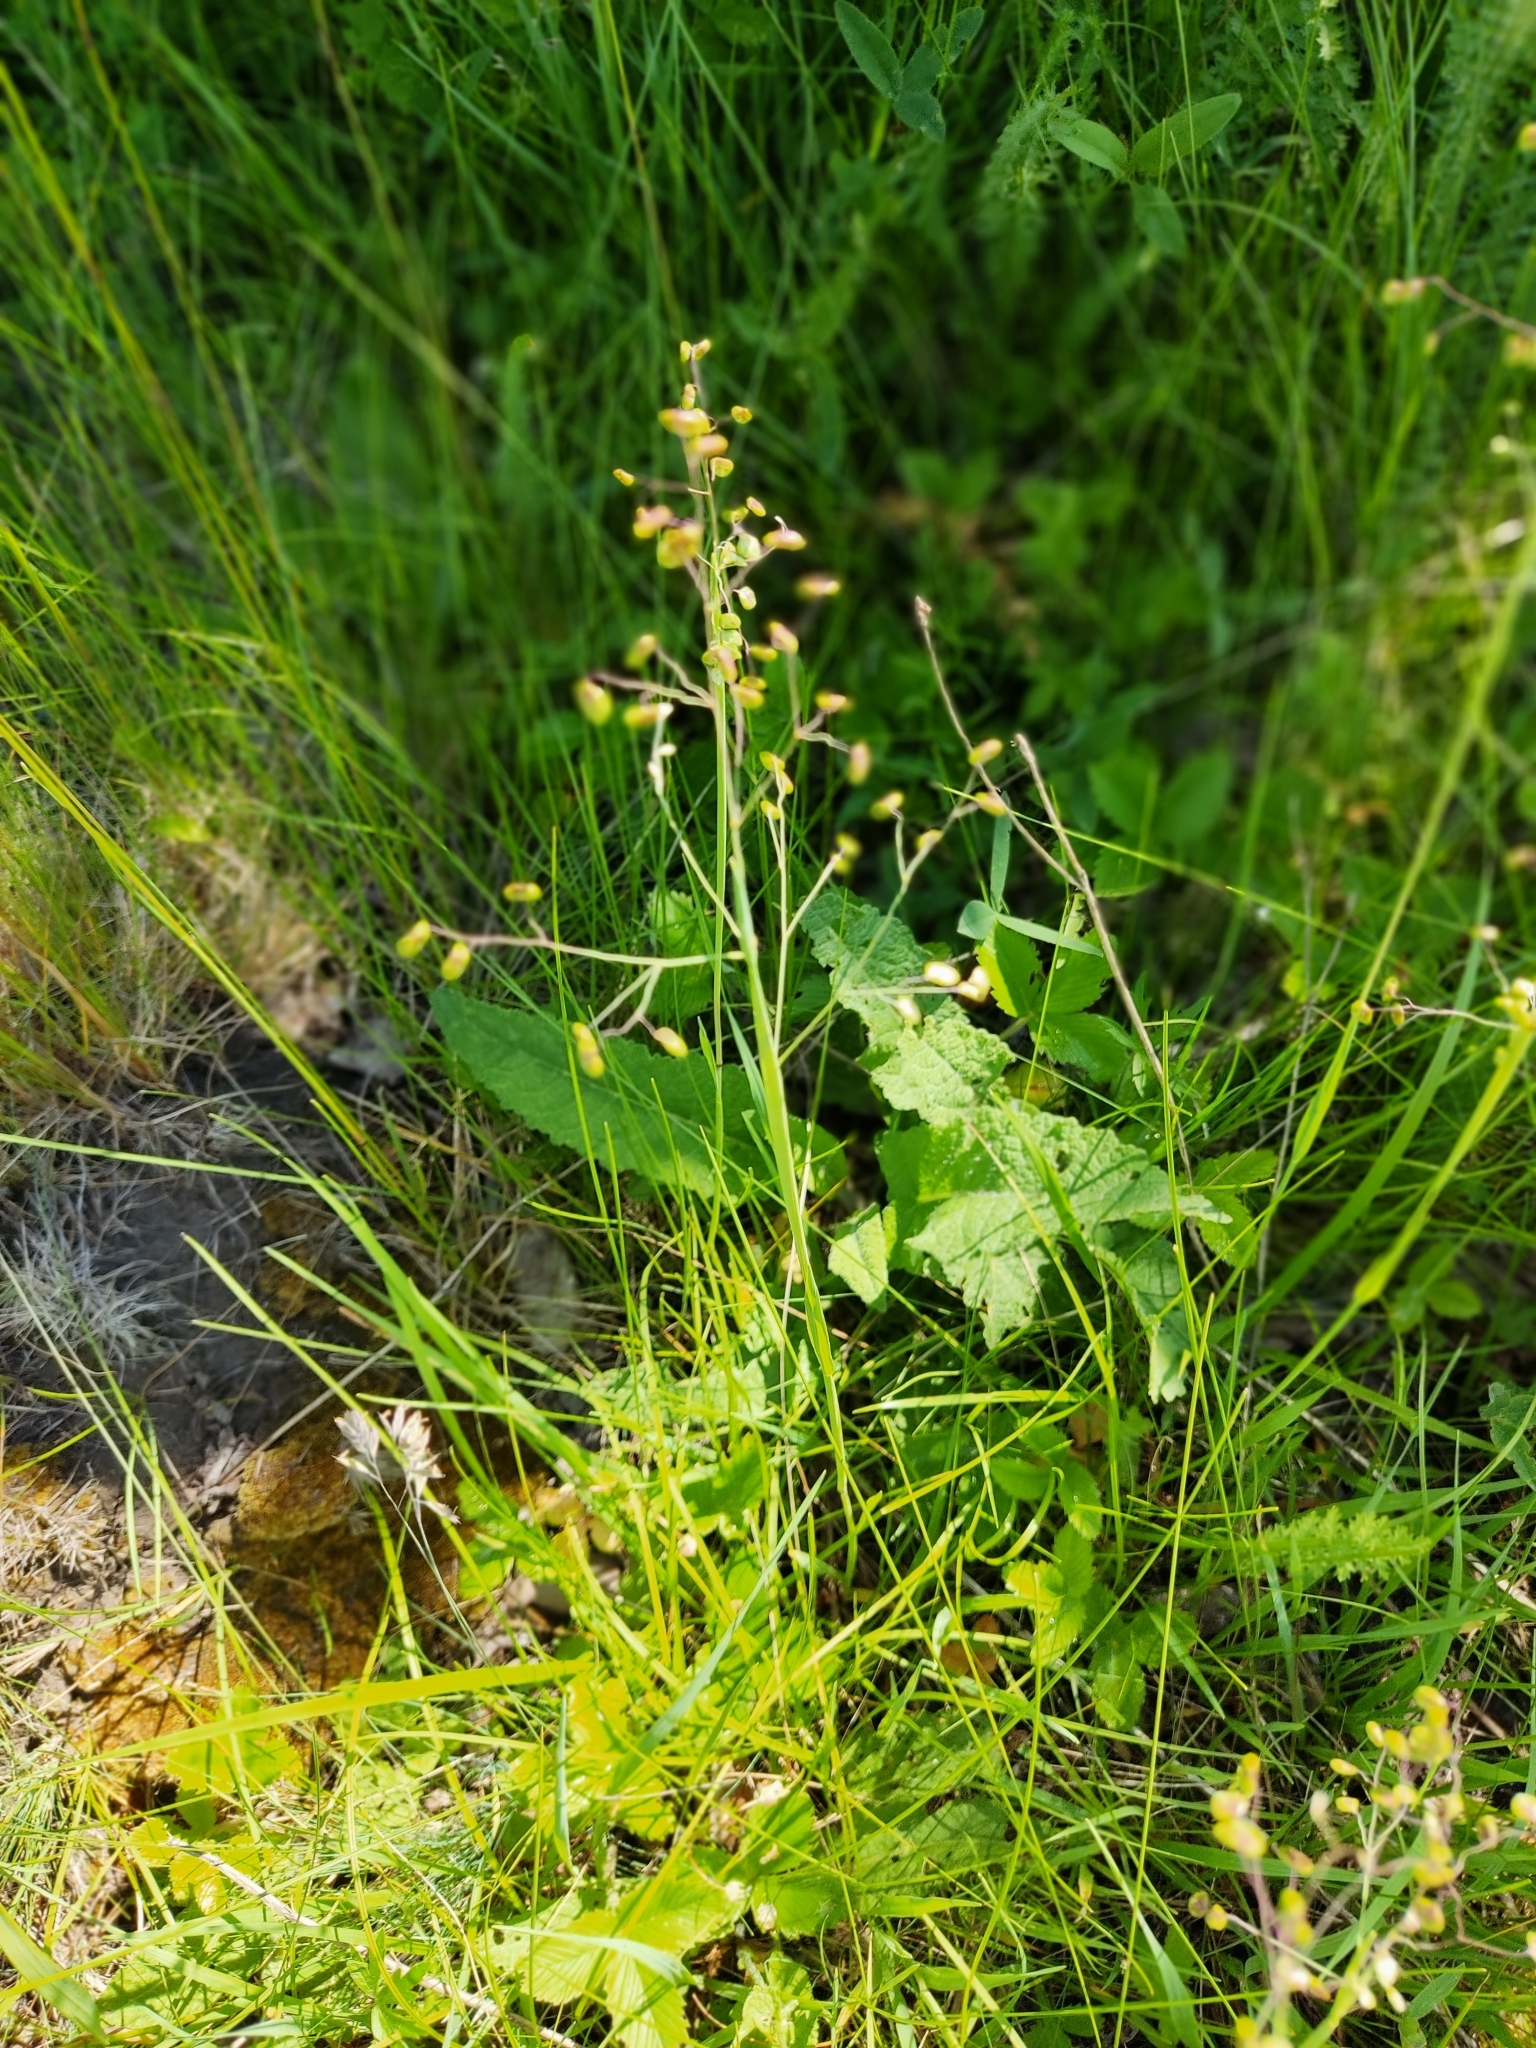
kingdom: Plantae
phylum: Tracheophyta
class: Liliopsida
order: Poales
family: Poaceae
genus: Briza
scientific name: Briza media
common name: Quaking grass
